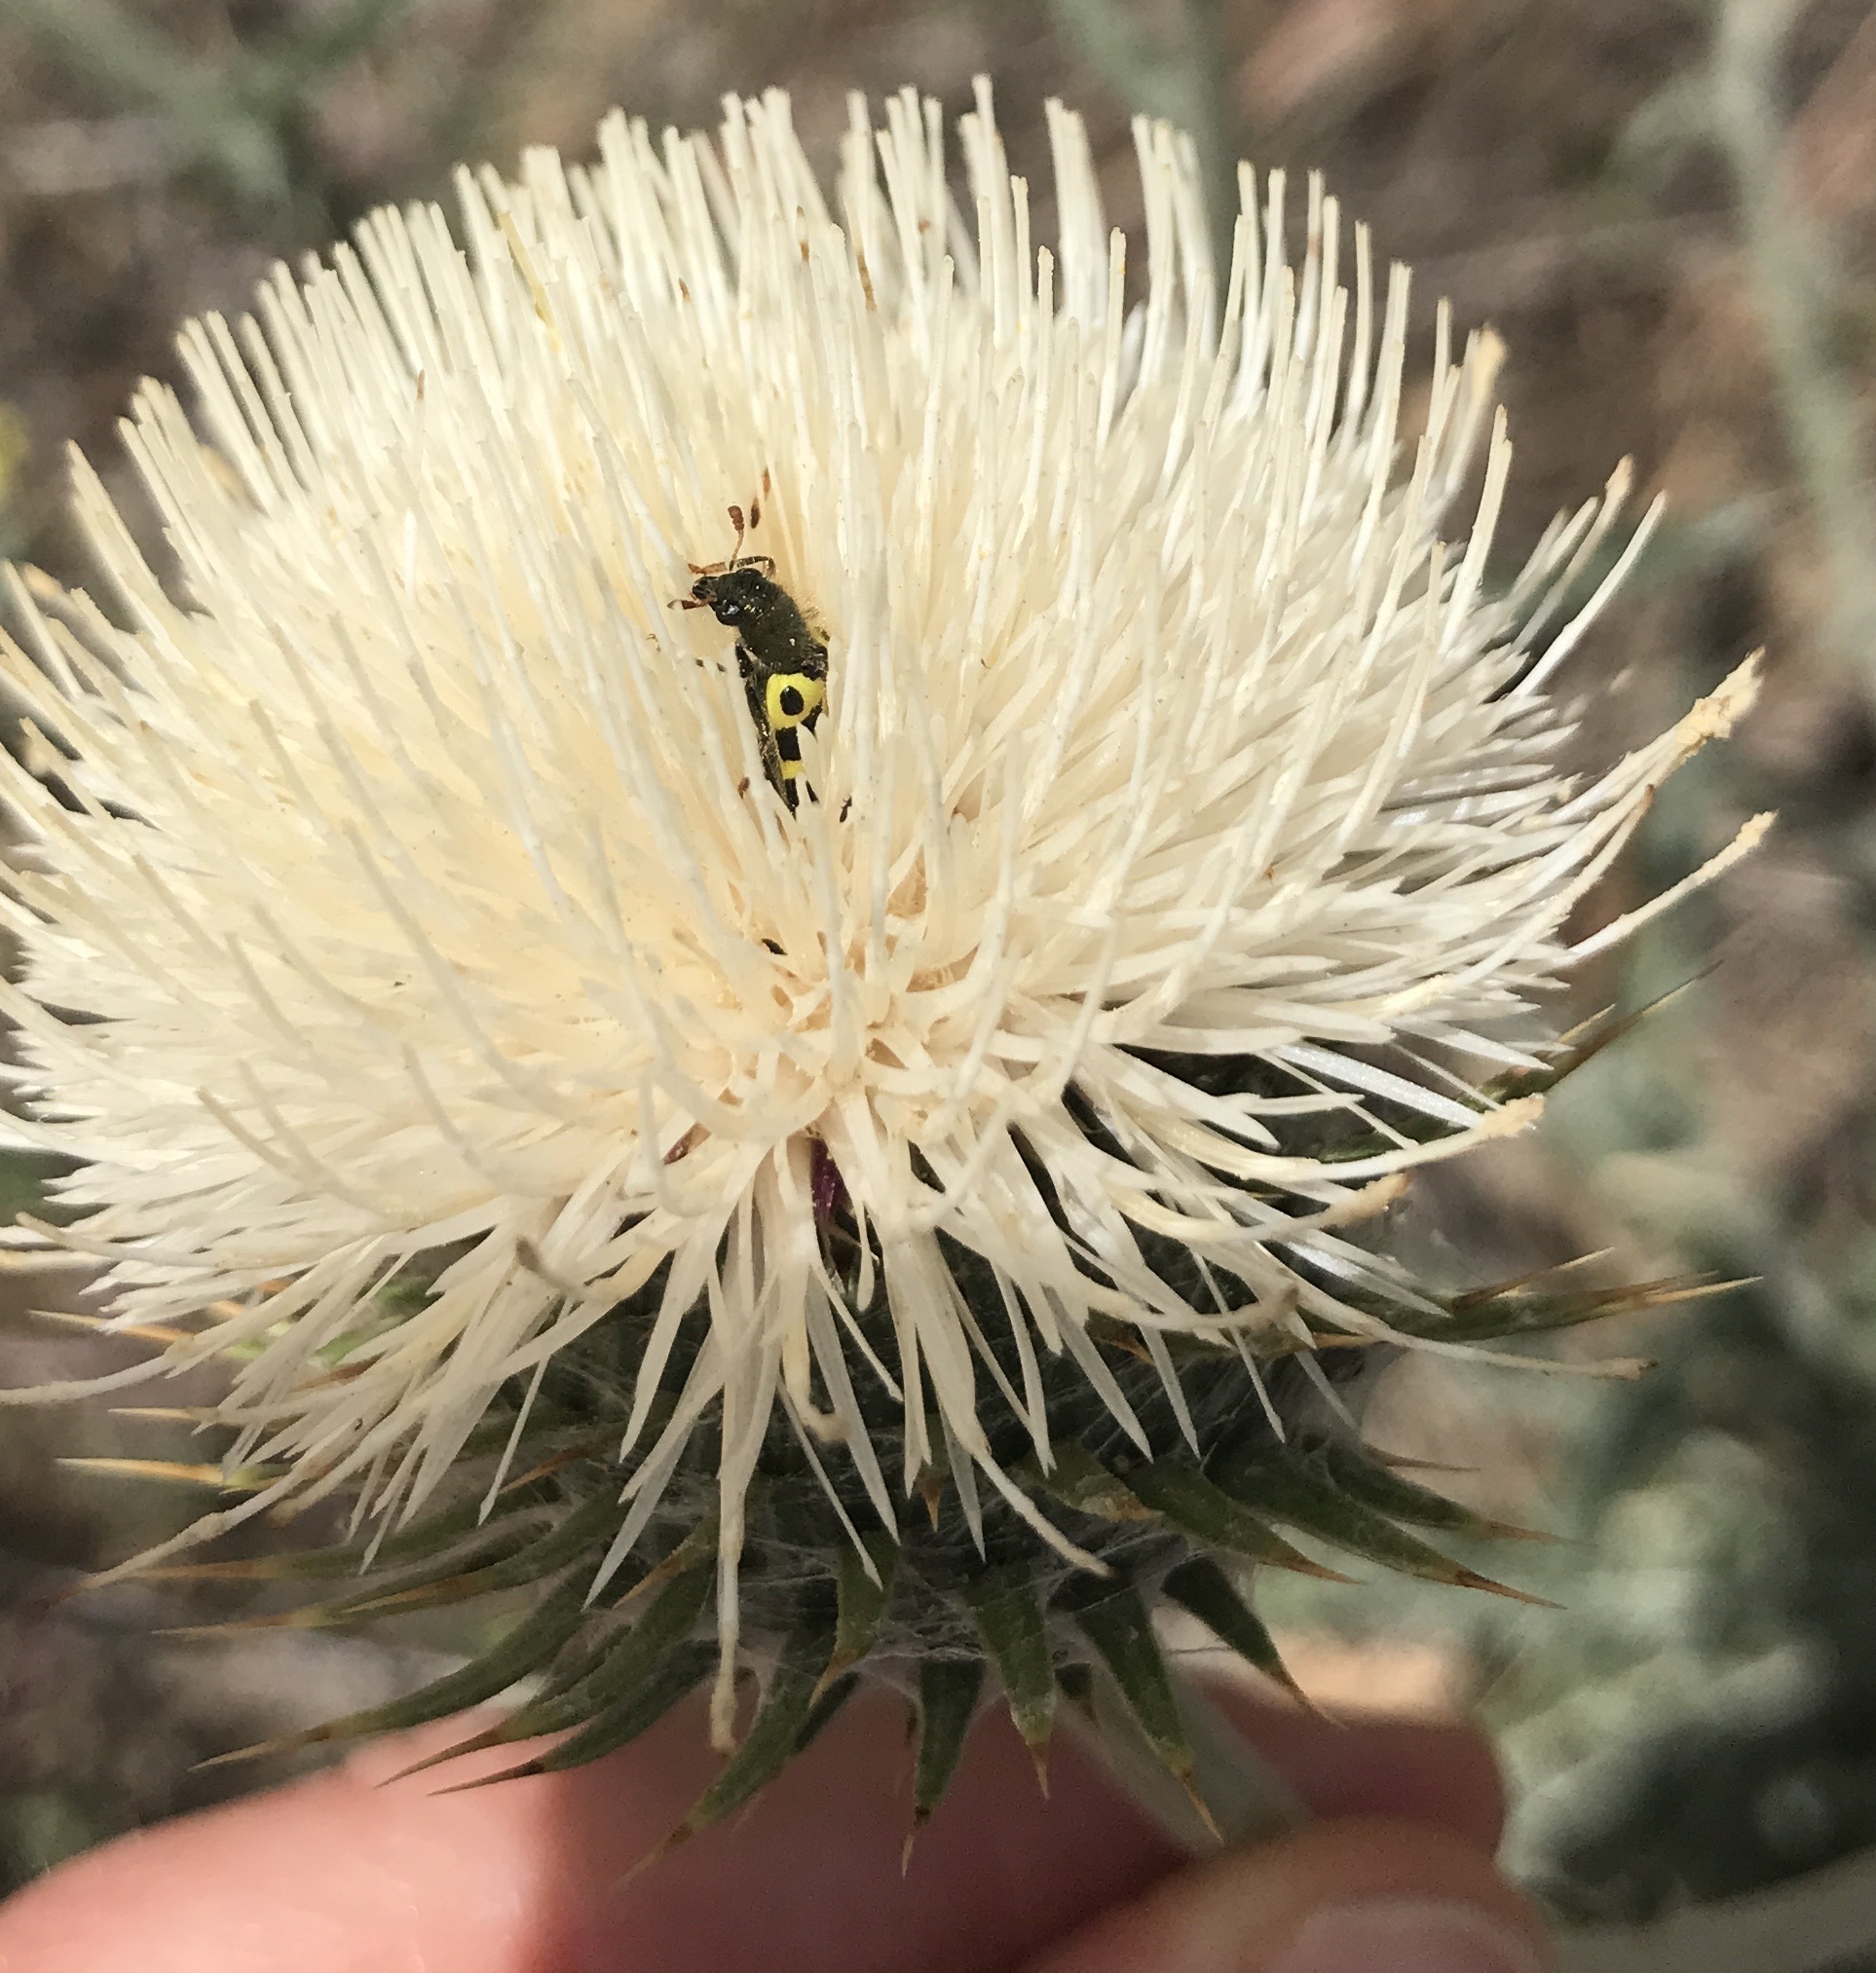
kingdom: Animalia
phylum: Arthropoda
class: Insecta
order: Coleoptera
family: Cleridae
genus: Trichodes
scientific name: Trichodes ornatus
